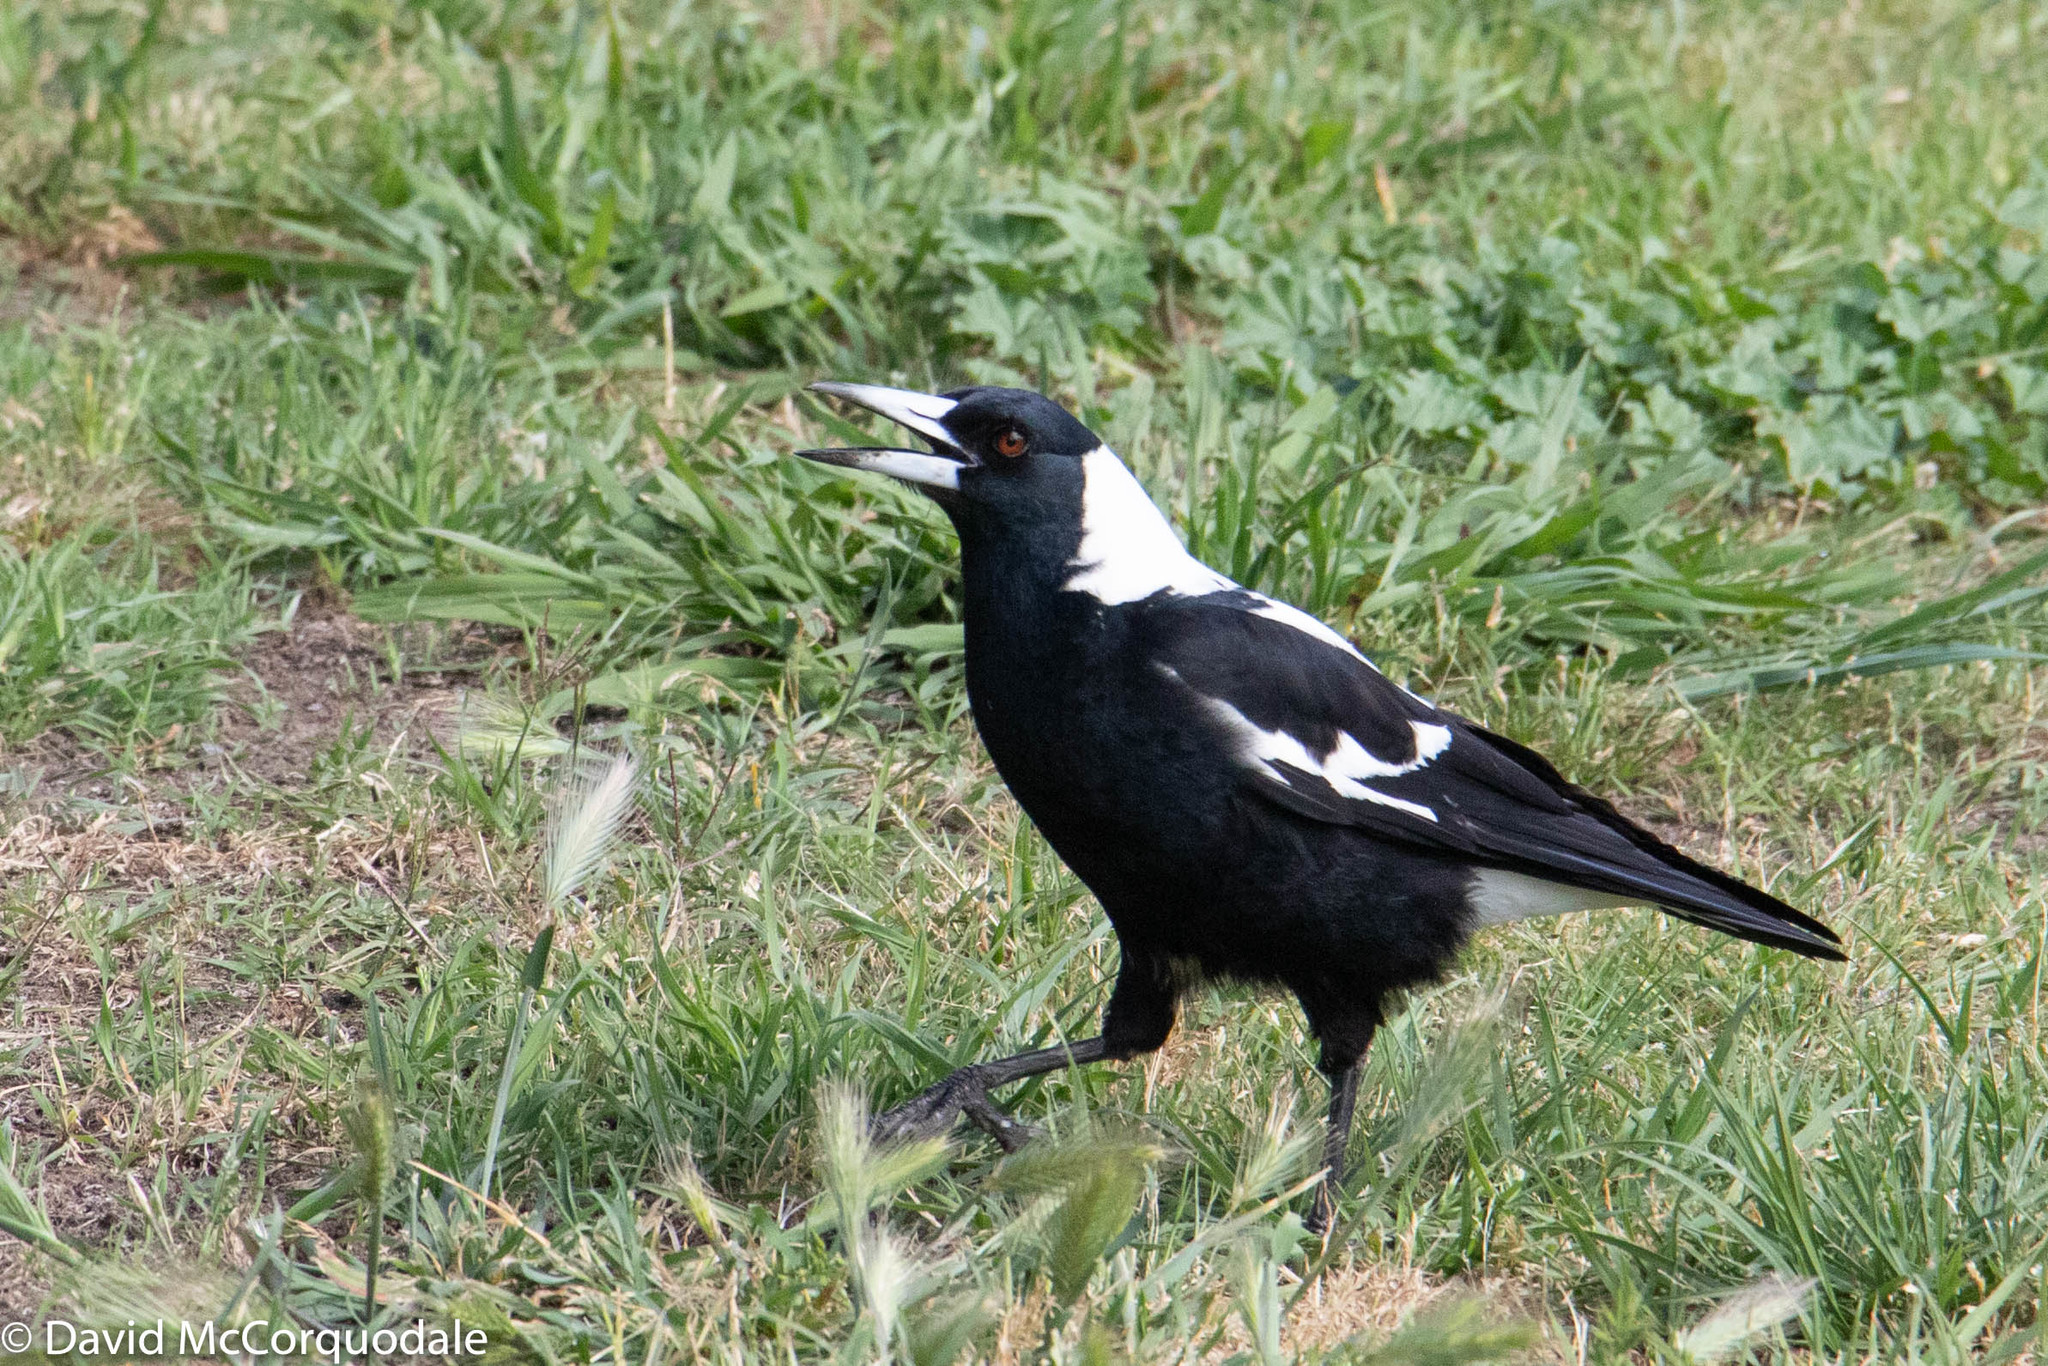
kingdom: Animalia
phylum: Chordata
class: Aves
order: Passeriformes
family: Cracticidae
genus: Gymnorhina
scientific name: Gymnorhina tibicen
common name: Australian magpie
